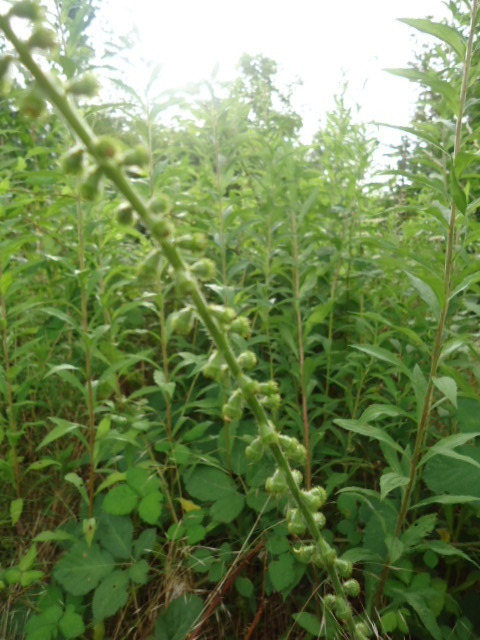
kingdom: Plantae
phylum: Tracheophyta
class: Magnoliopsida
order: Rosales
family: Rosaceae
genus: Agrimonia
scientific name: Agrimonia eupatoria
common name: Agrimony
